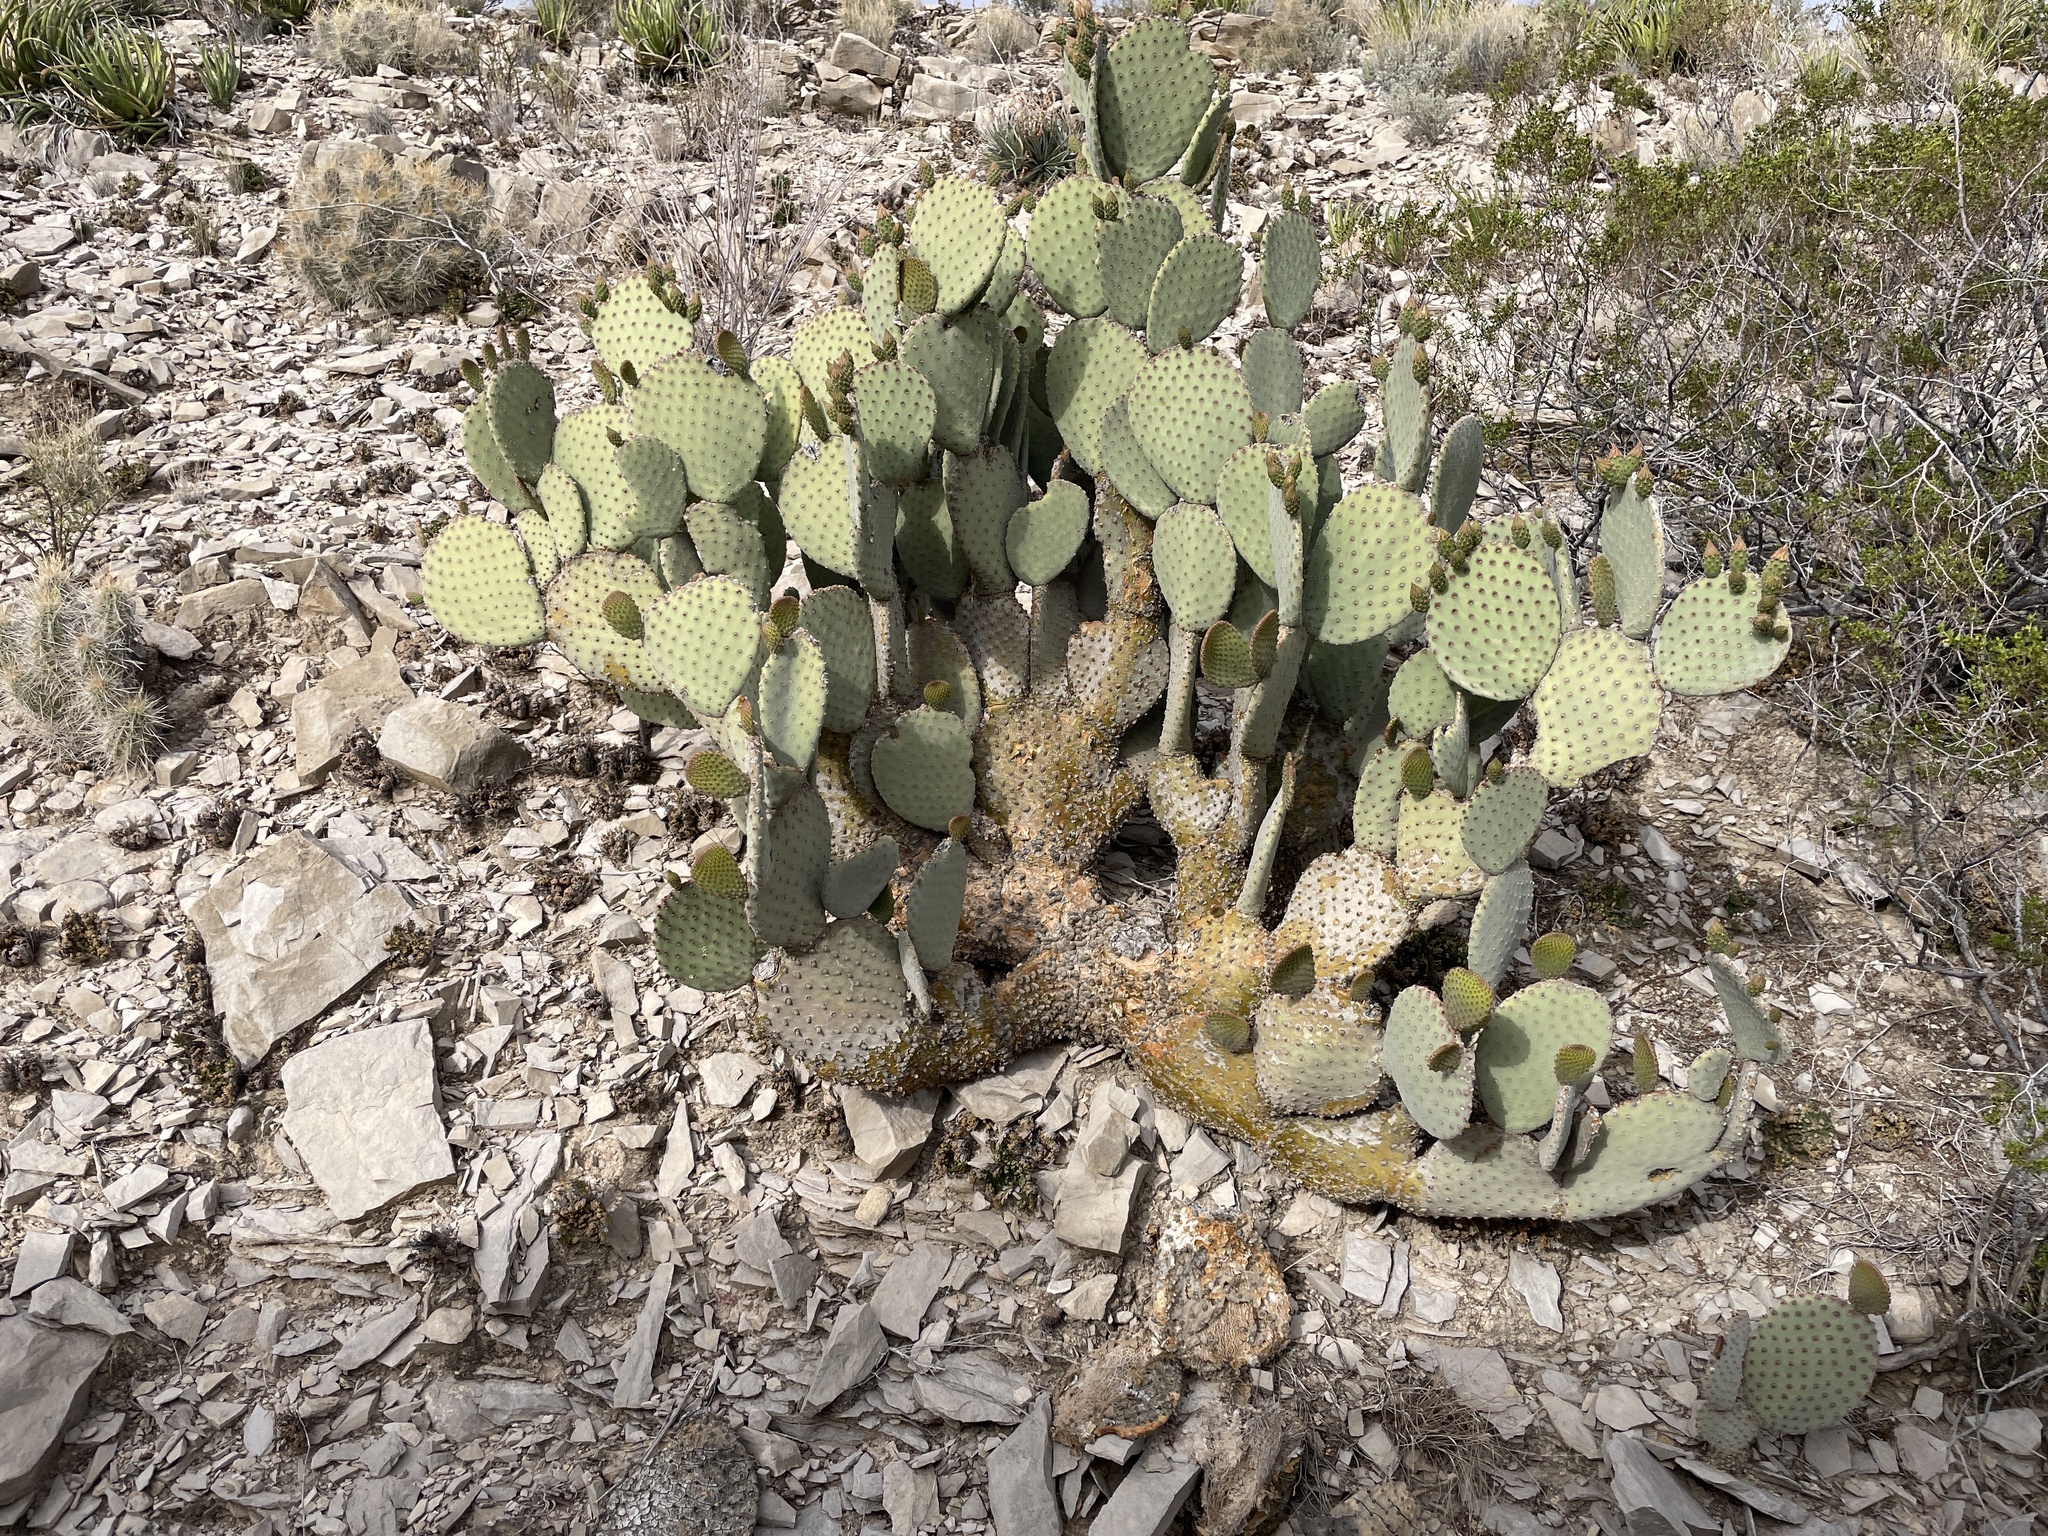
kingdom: Plantae
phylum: Tracheophyta
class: Magnoliopsida
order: Caryophyllales
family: Cactaceae
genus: Opuntia
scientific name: Opuntia rufida
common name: Blind pricklypear
